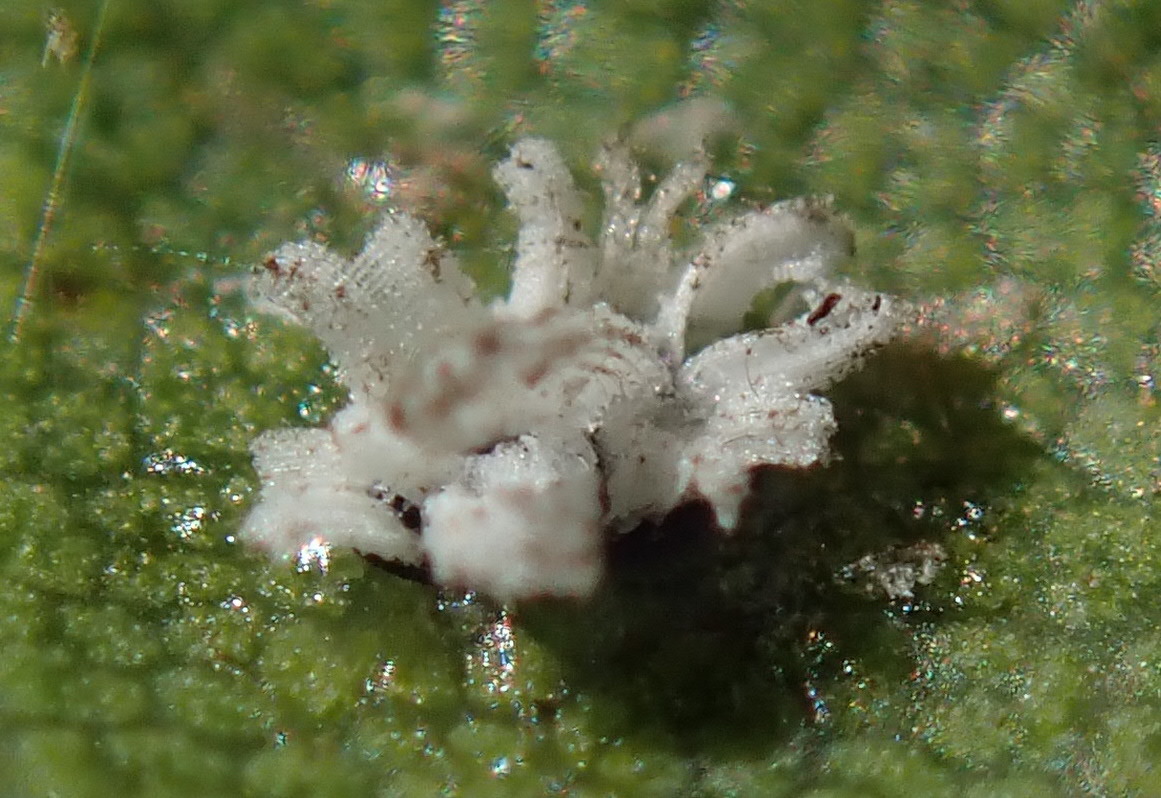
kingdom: Animalia
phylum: Arthropoda
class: Insecta
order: Hemiptera
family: Aleyrodidae
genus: Aleuroplatus
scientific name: Aleuroplatus coronata
